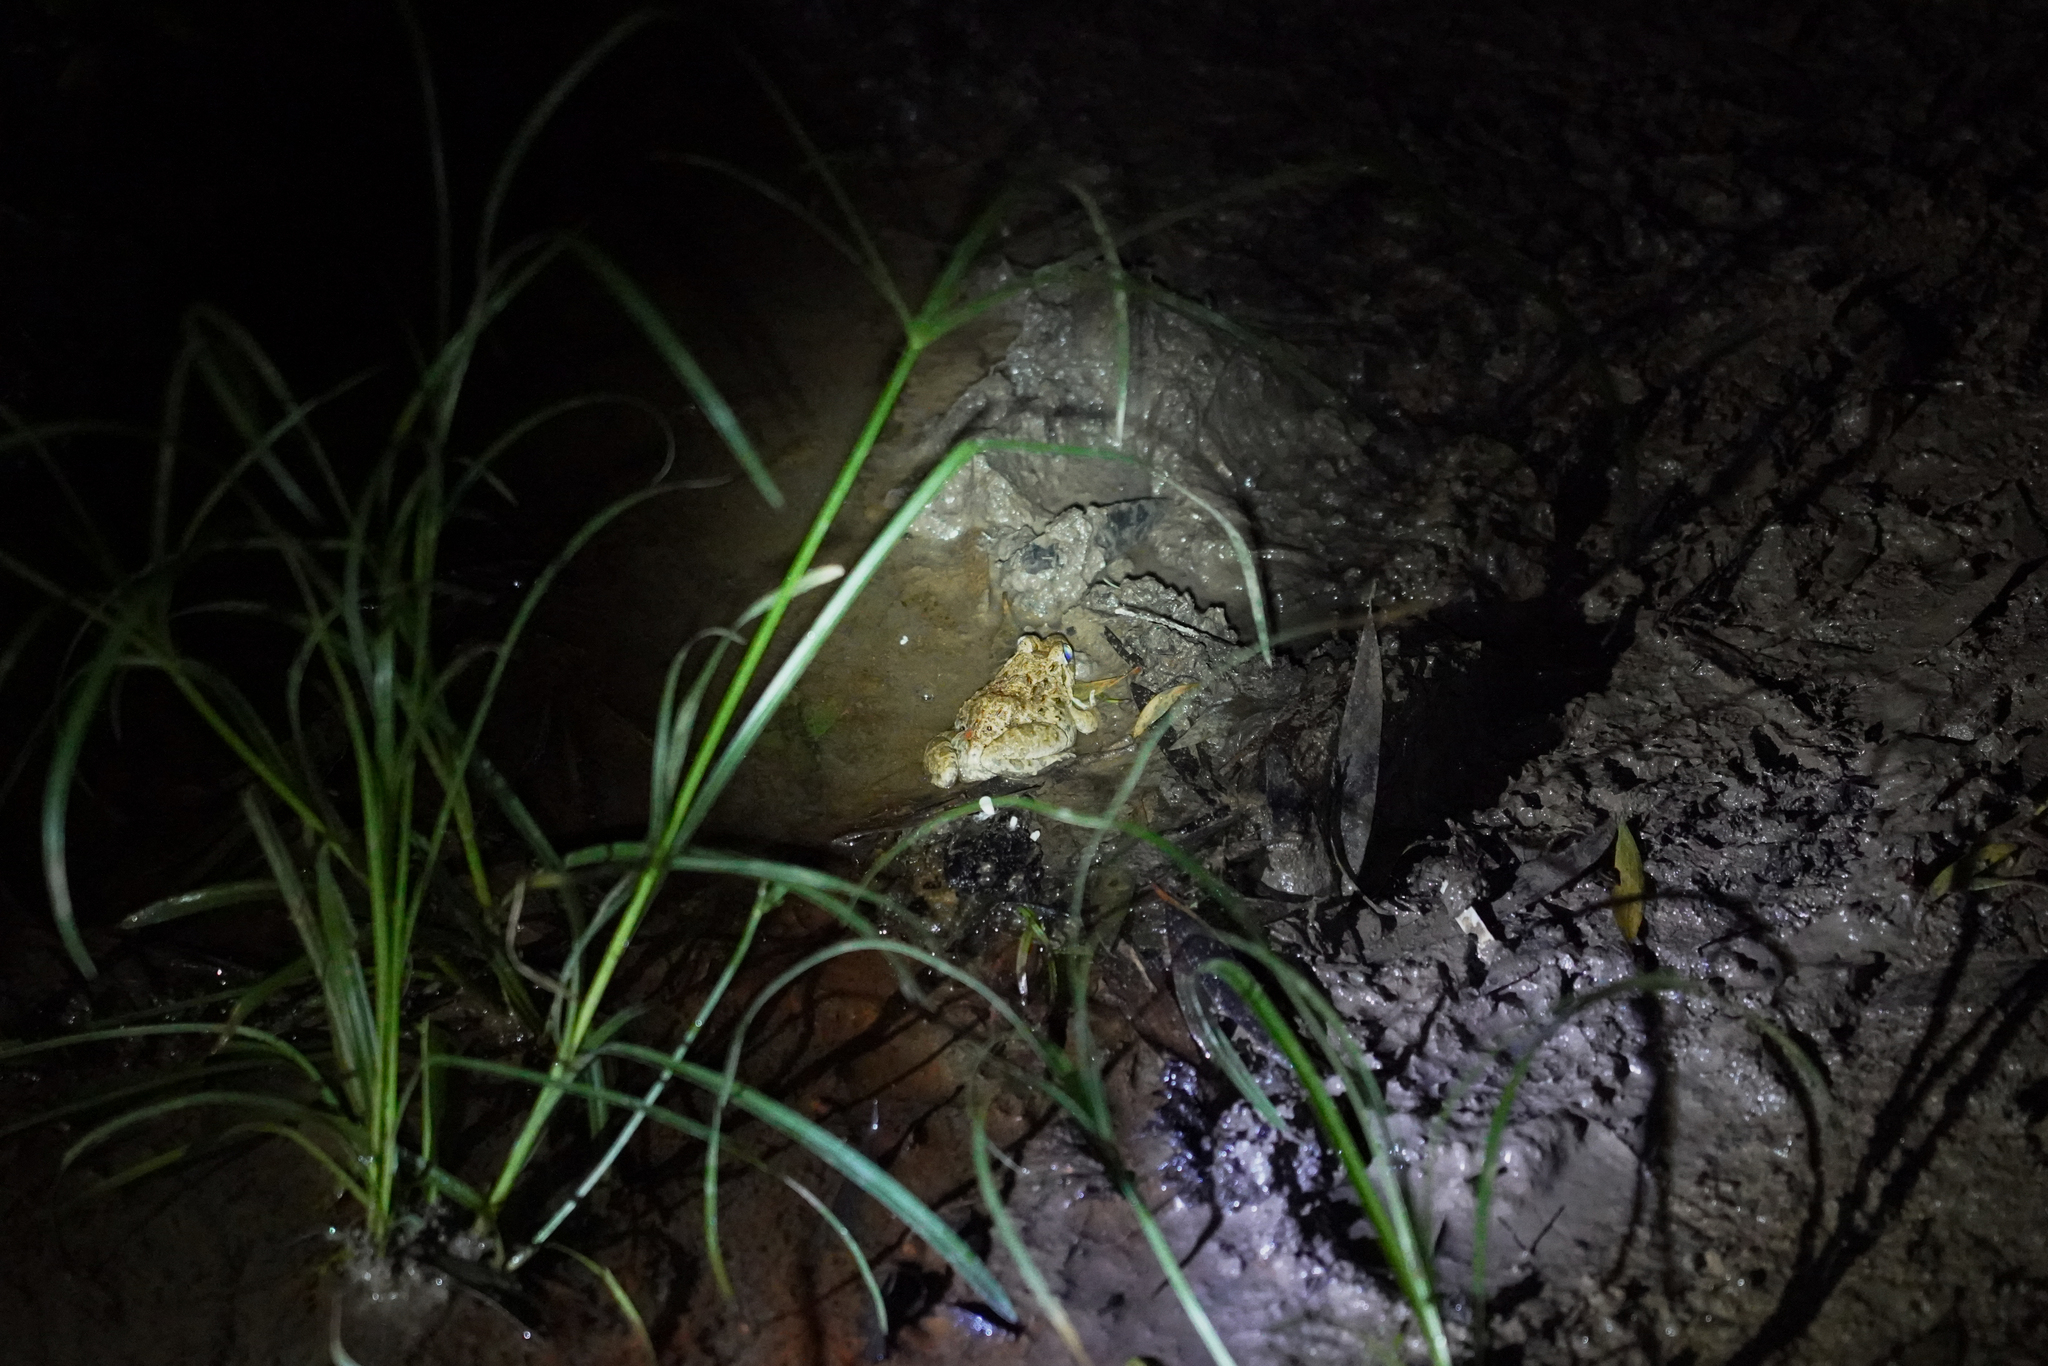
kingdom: Animalia
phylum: Chordata
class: Amphibia
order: Anura
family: Dicroglossidae
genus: Fejervarya
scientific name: Fejervarya multistriata
